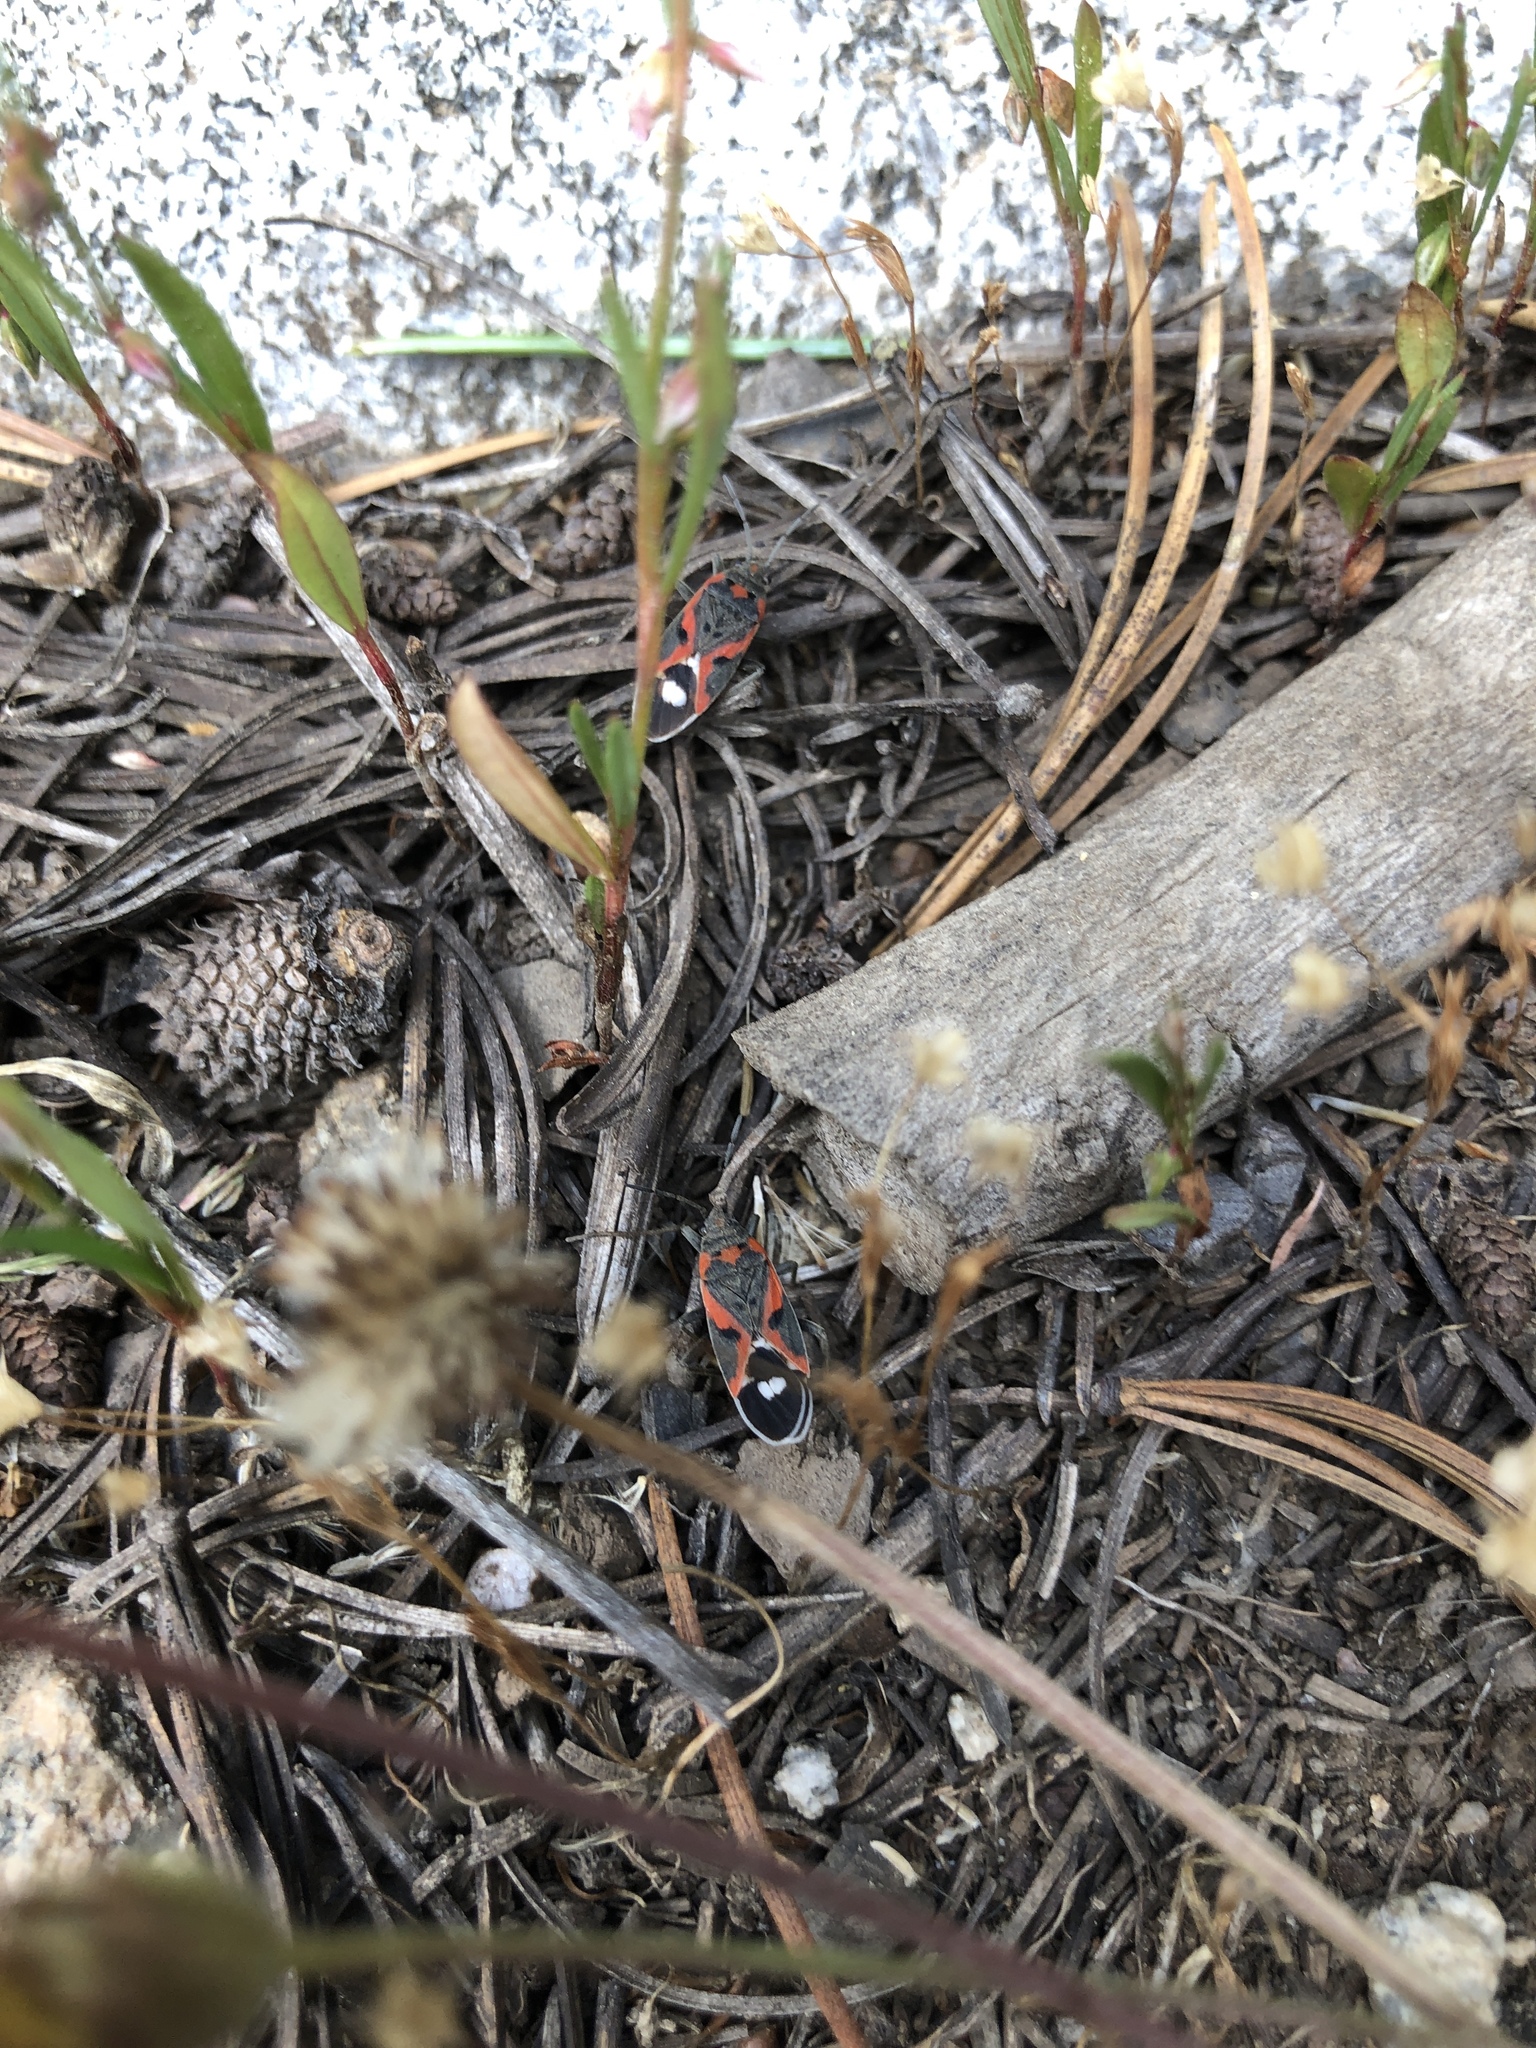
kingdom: Animalia
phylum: Arthropoda
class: Insecta
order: Hemiptera
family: Lygaeidae
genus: Lygaeus
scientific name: Lygaeus kalmii
